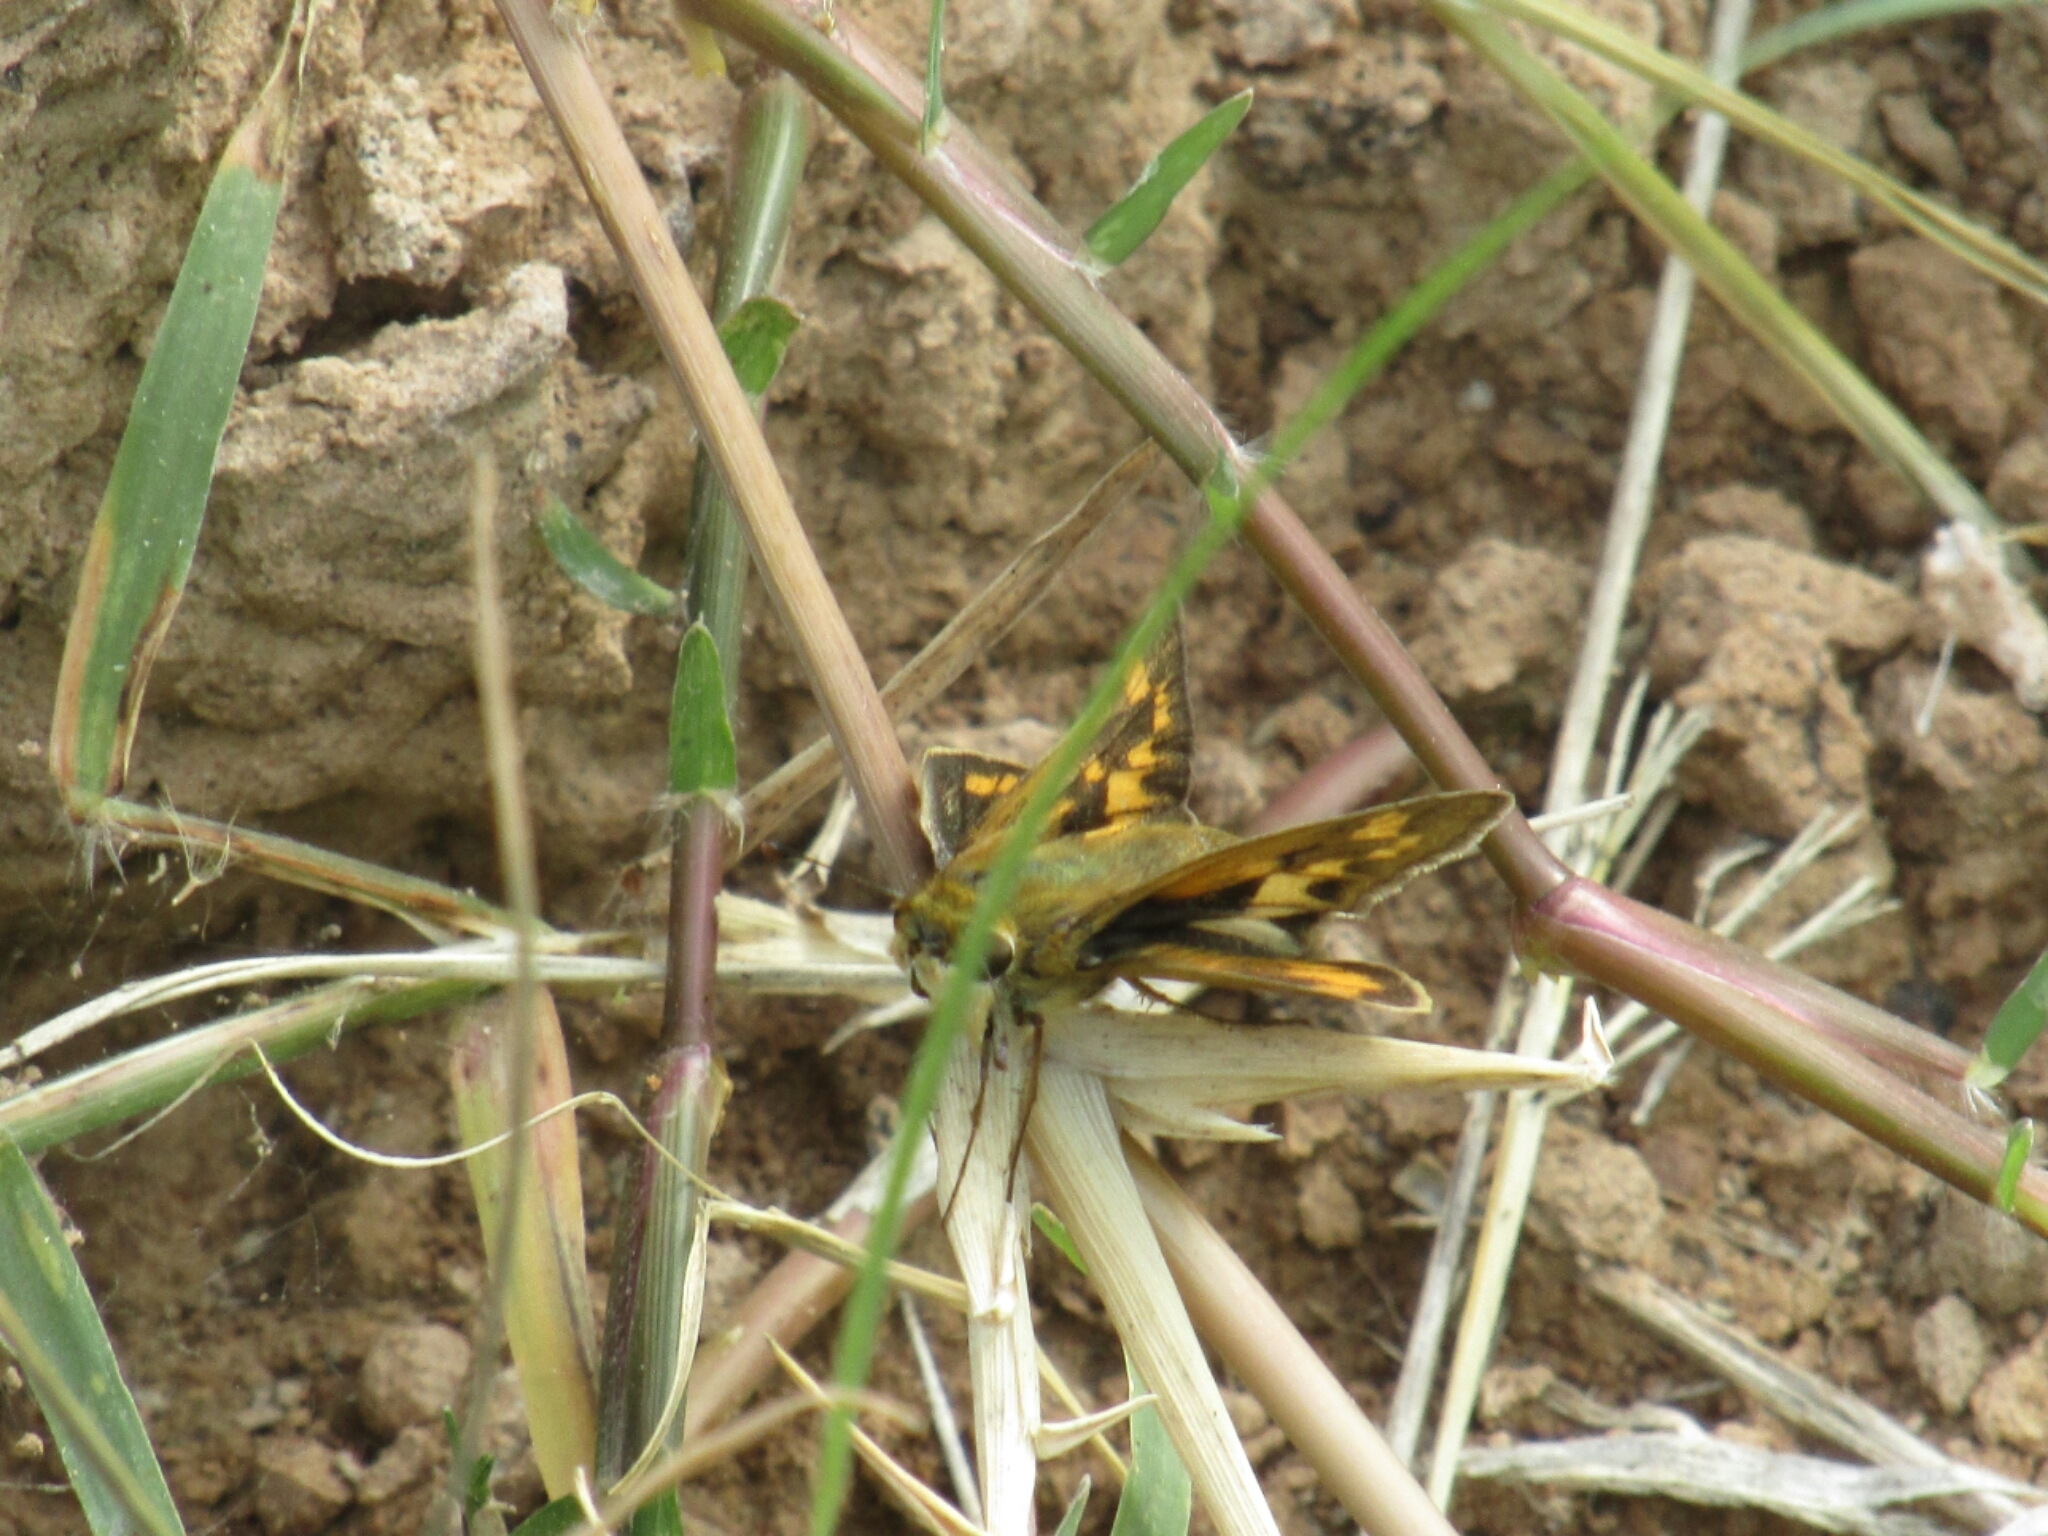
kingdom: Animalia
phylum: Arthropoda
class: Insecta
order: Lepidoptera
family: Hesperiidae
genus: Hylephila
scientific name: Hylephila phyleus
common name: Fiery skipper
